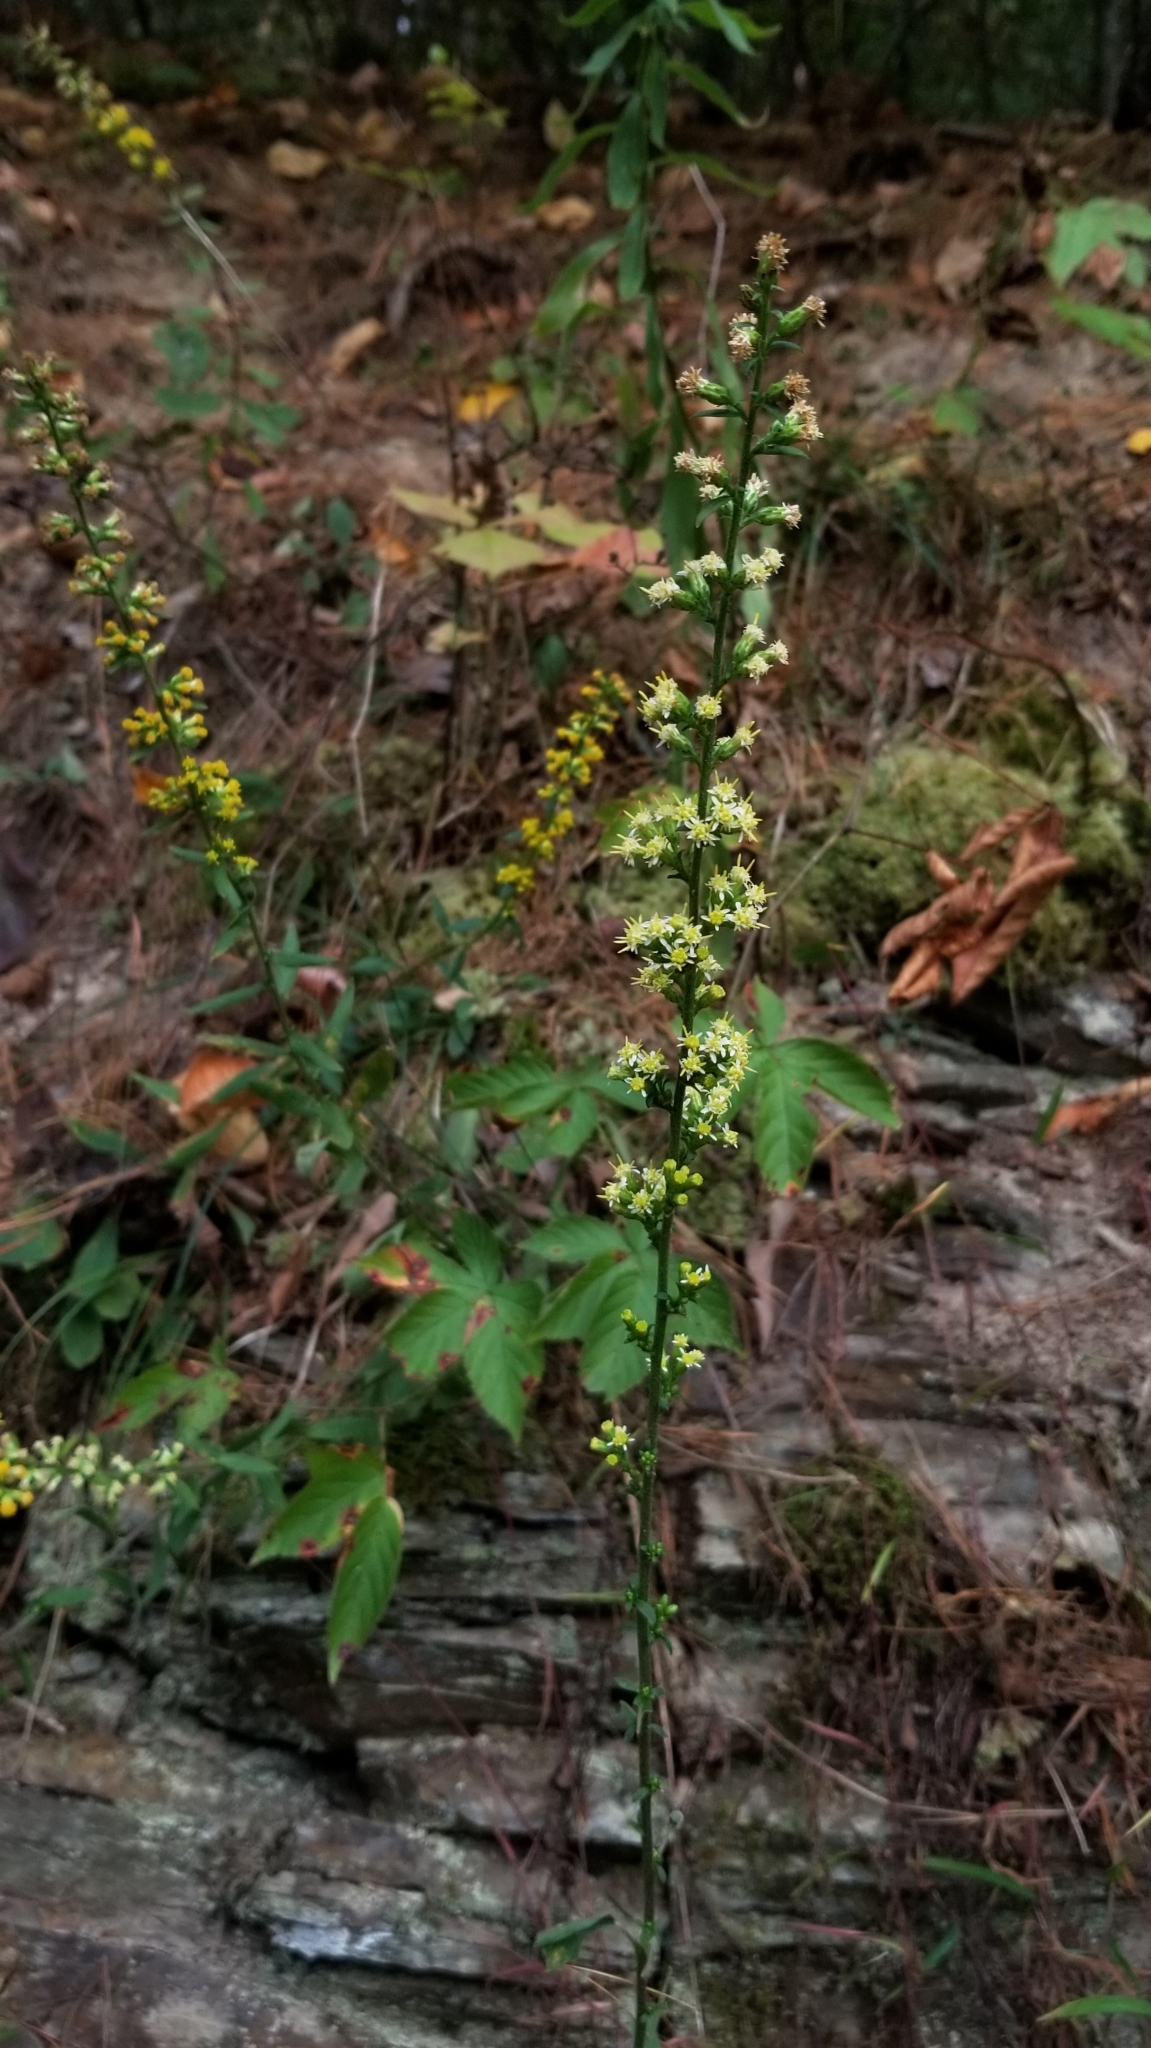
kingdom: Plantae
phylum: Tracheophyta
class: Magnoliopsida
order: Asterales
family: Asteraceae
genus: Solidago
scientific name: Solidago bicolor
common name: Silverrod
